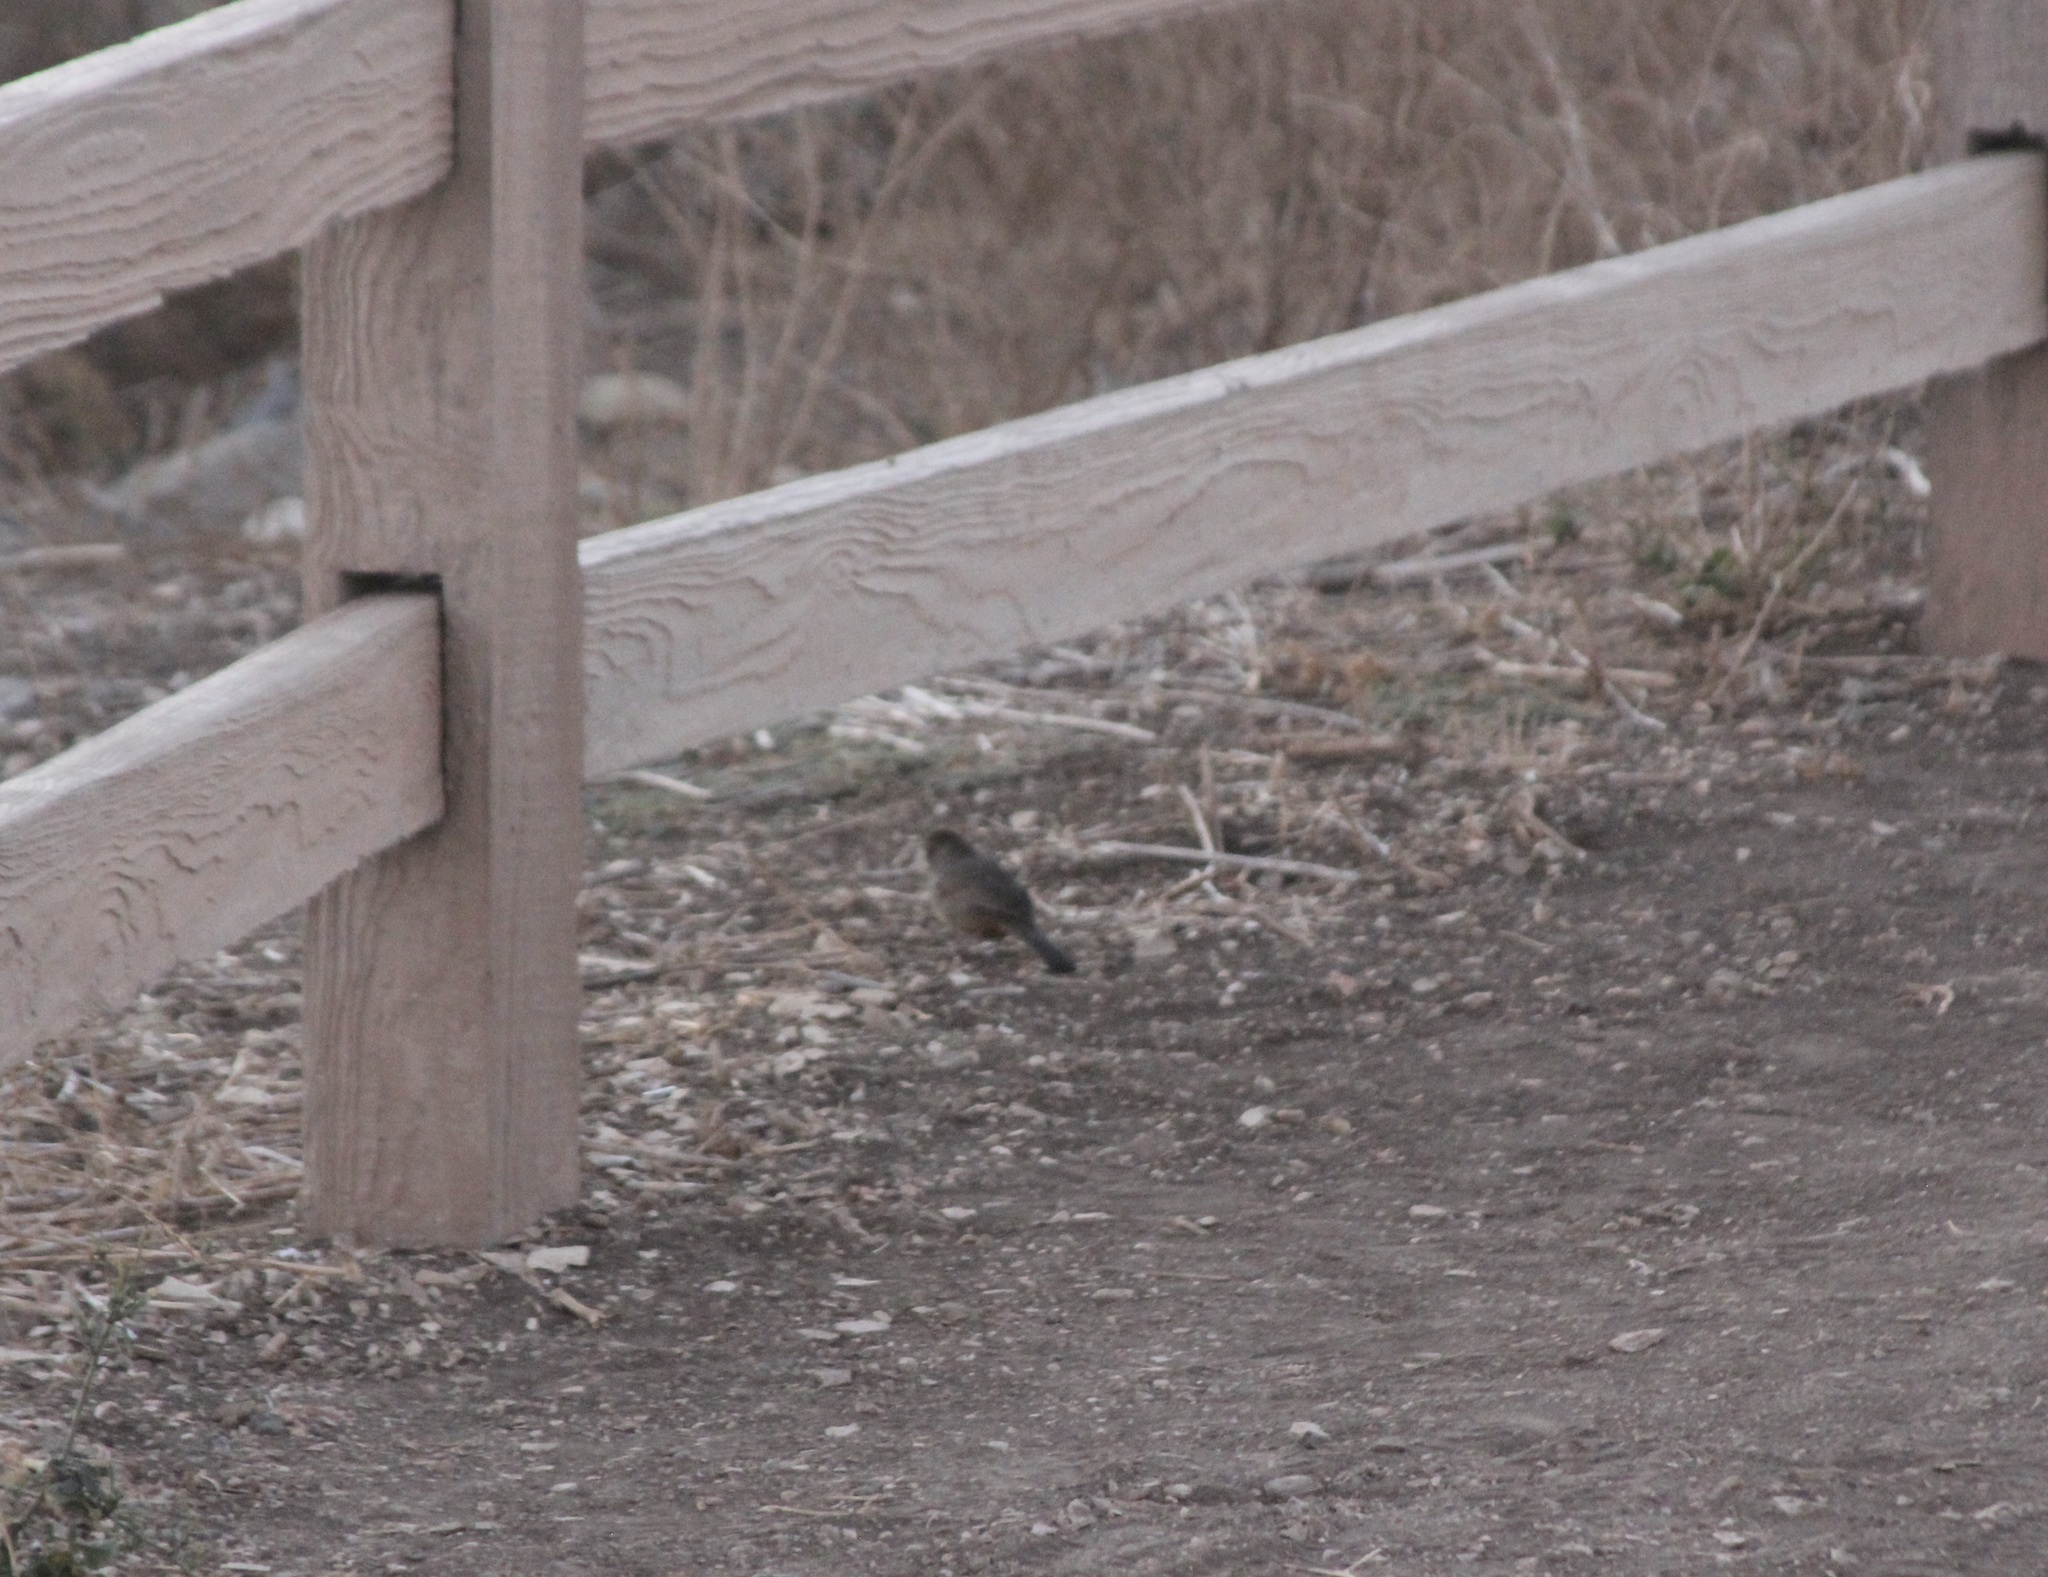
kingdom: Animalia
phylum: Chordata
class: Aves
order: Passeriformes
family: Passerellidae
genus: Melozone
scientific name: Melozone crissalis
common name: California towhee
